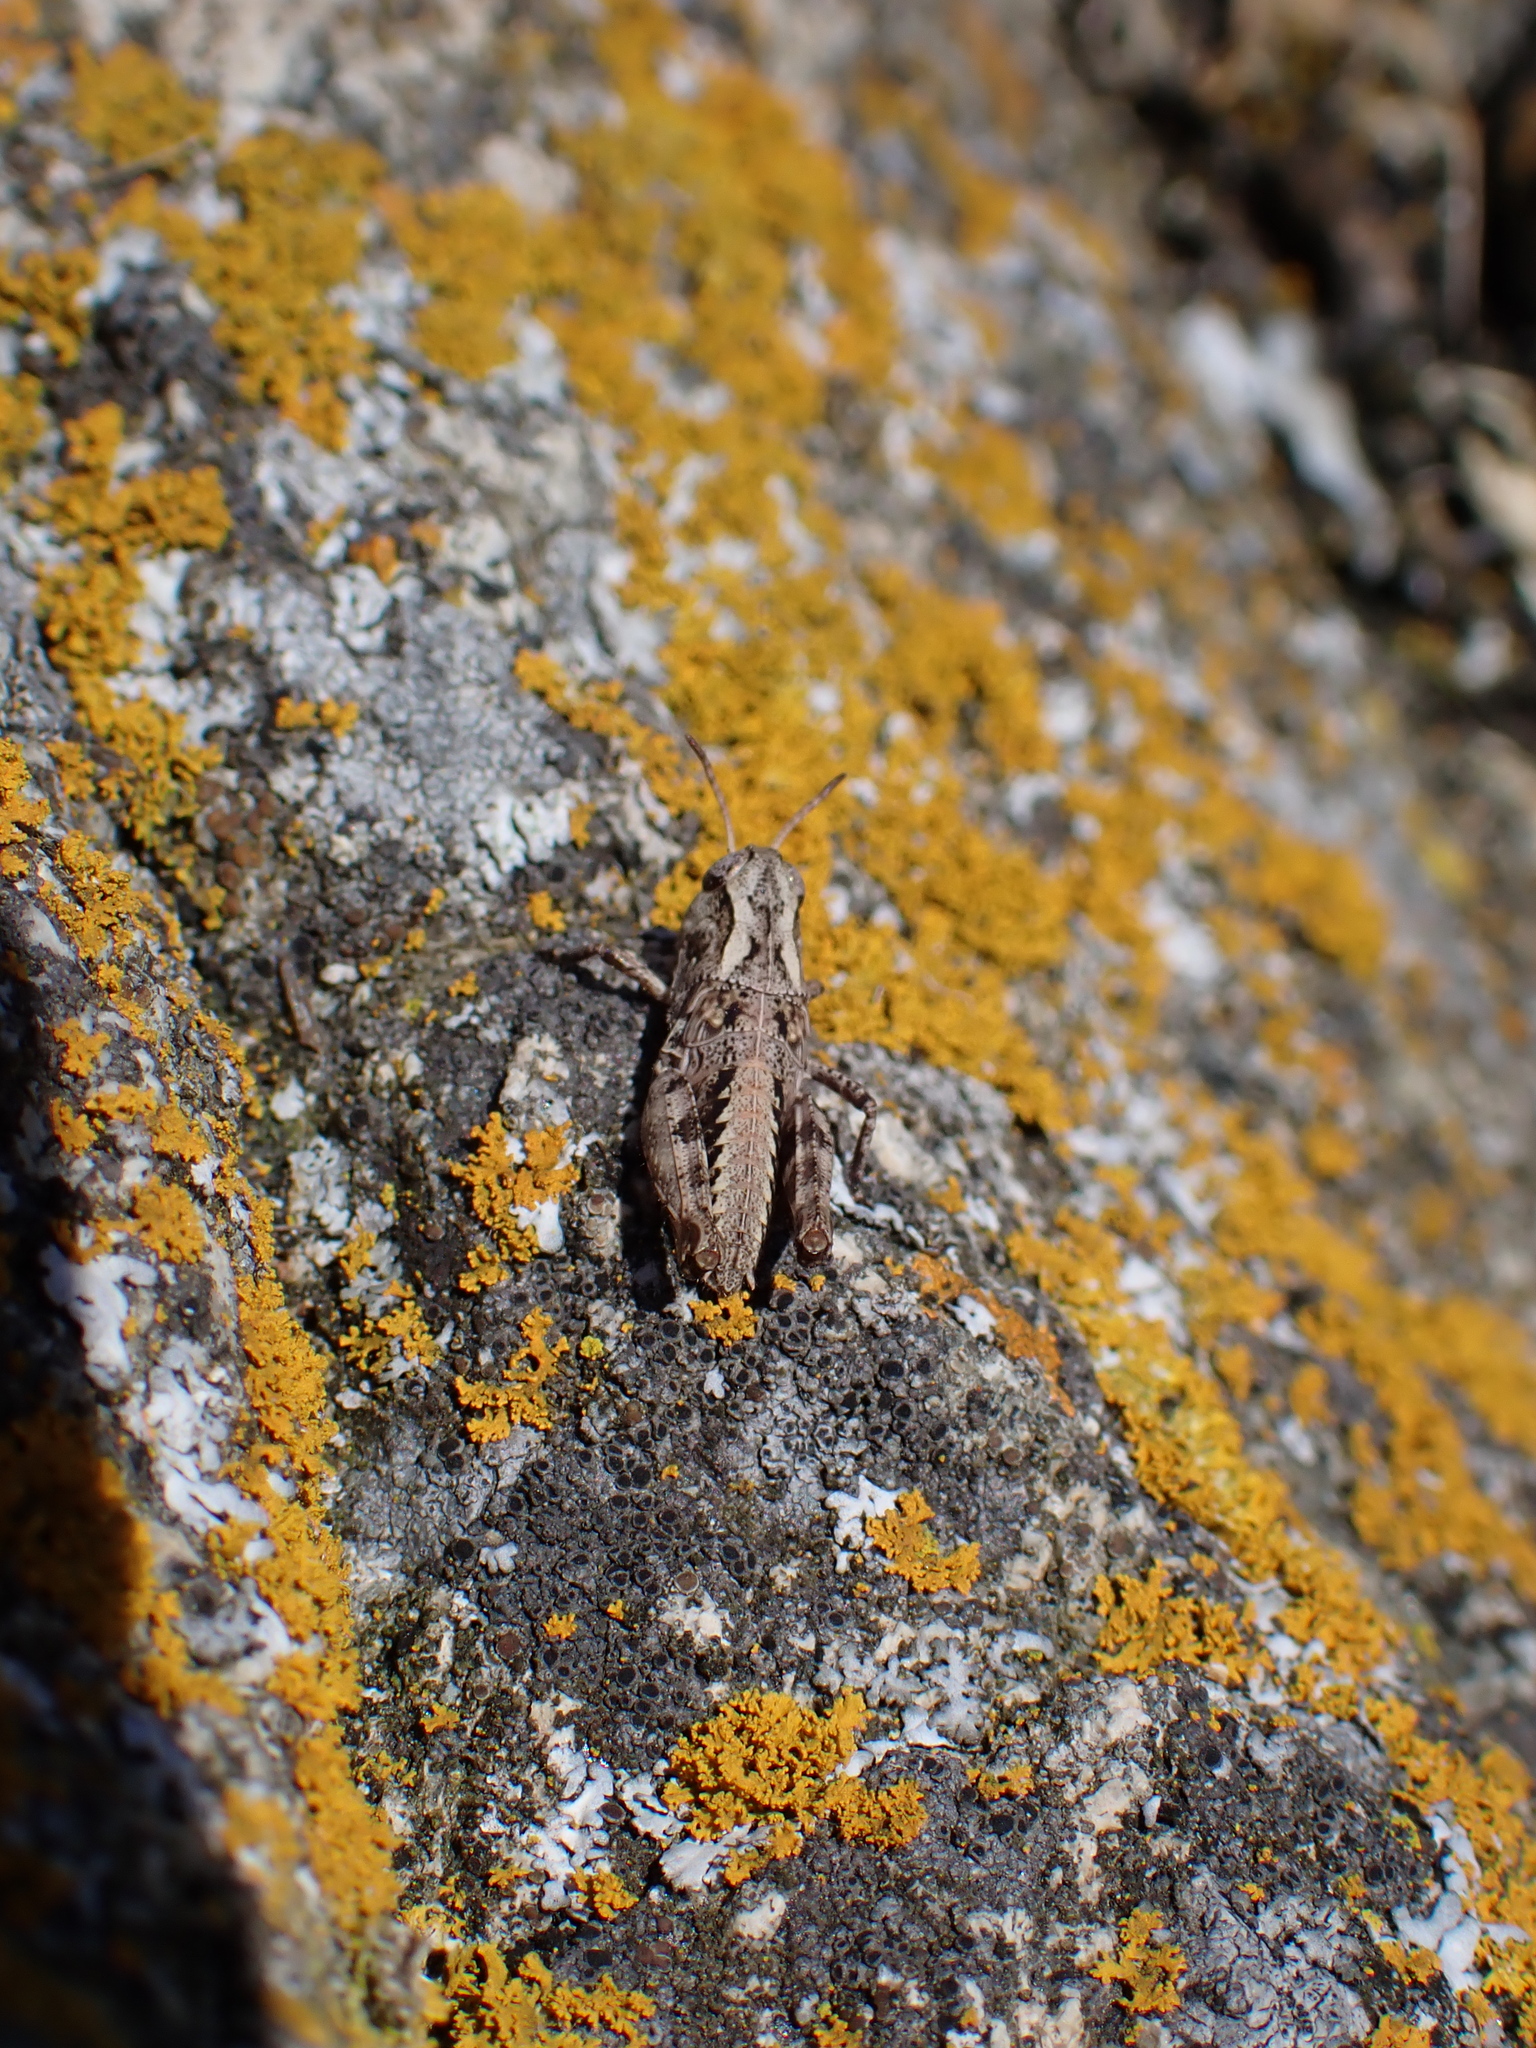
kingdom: Animalia
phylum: Arthropoda
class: Insecta
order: Orthoptera
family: Acrididae
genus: Camnula
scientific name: Camnula pellucida
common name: Clear-winged grasshopper
